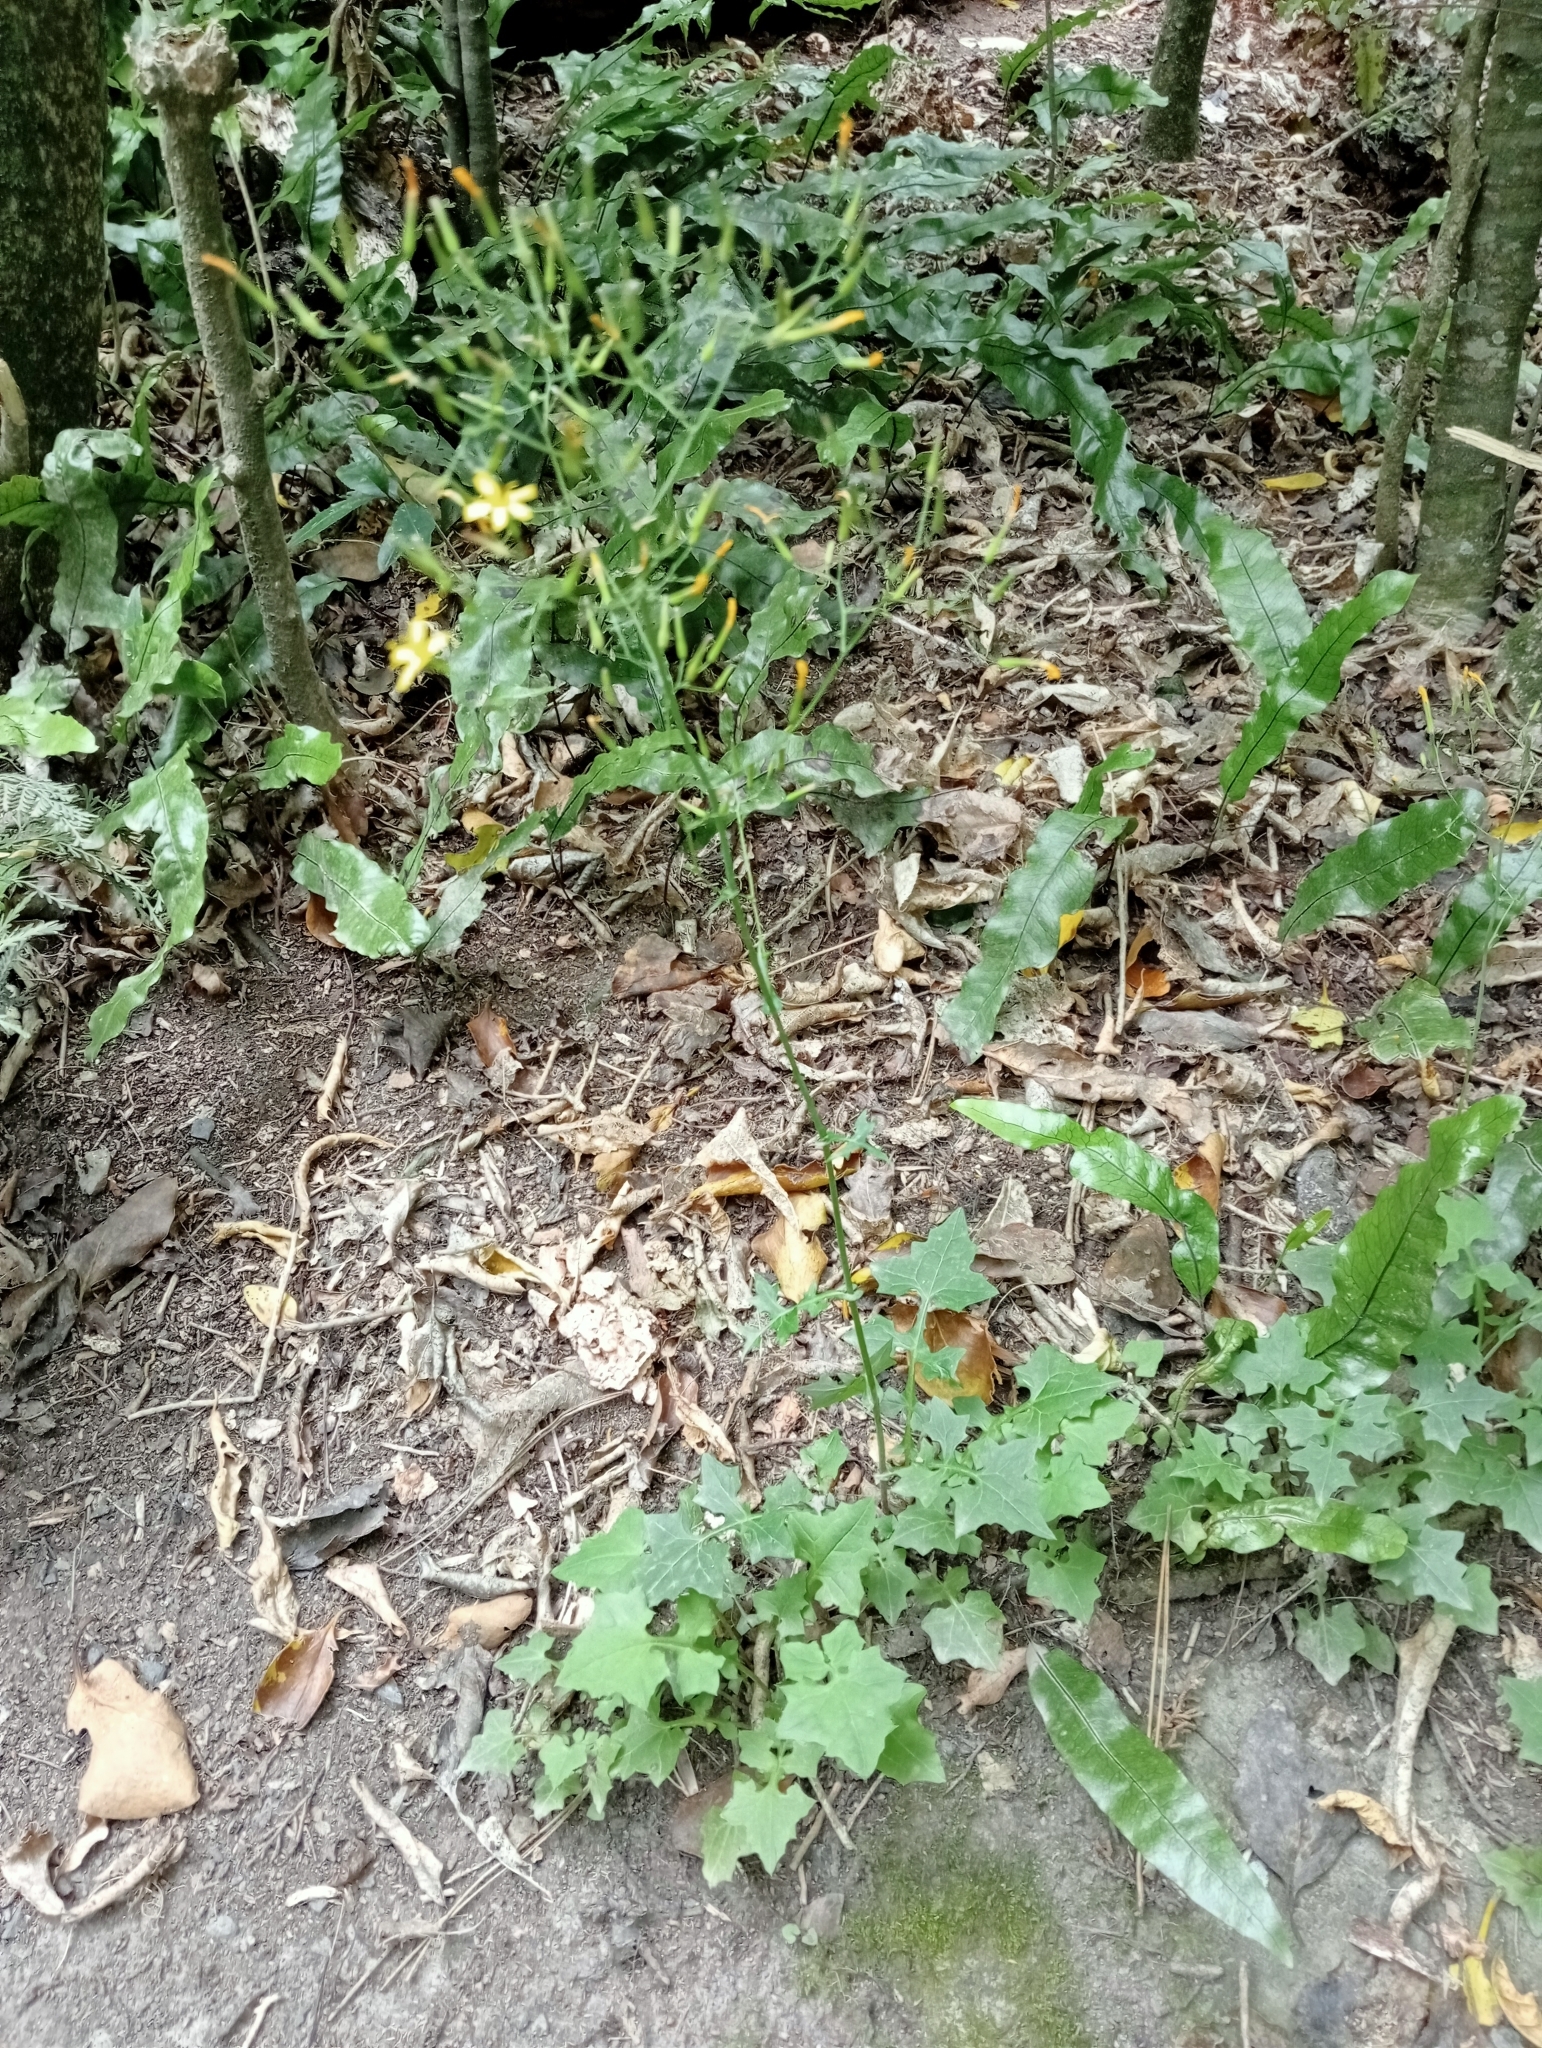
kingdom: Plantae
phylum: Tracheophyta
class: Magnoliopsida
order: Asterales
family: Asteraceae
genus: Mycelis
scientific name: Mycelis muralis
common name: Wall lettuce
